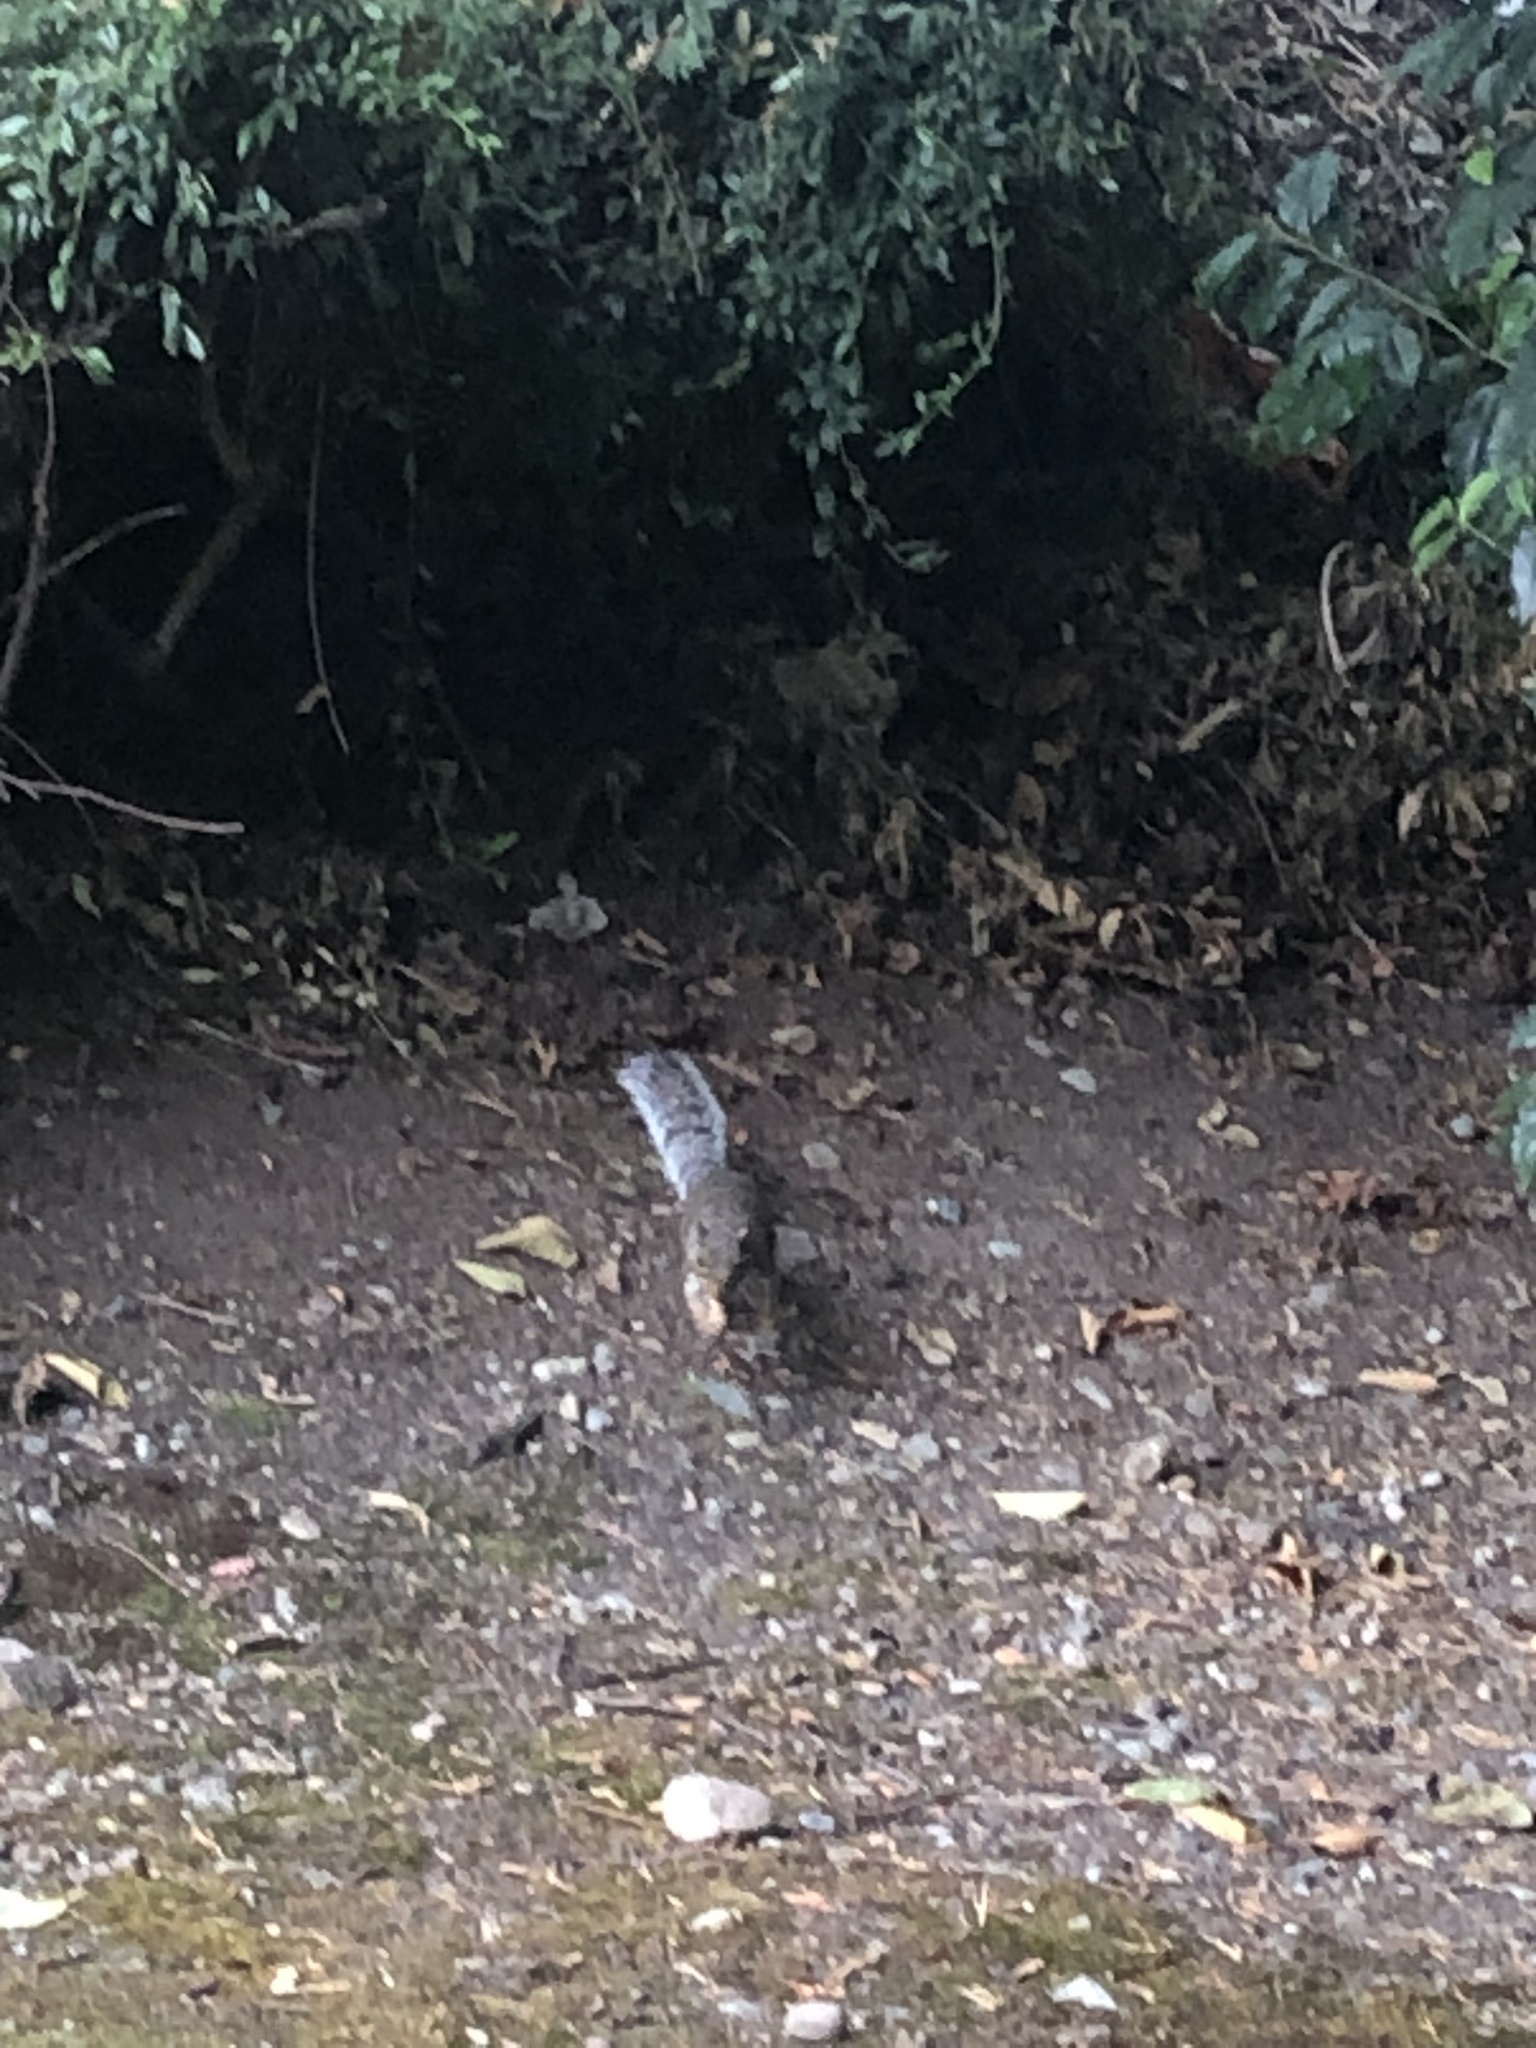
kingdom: Animalia
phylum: Chordata
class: Mammalia
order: Rodentia
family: Sciuridae
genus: Sciurus
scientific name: Sciurus carolinensis
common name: Eastern gray squirrel
